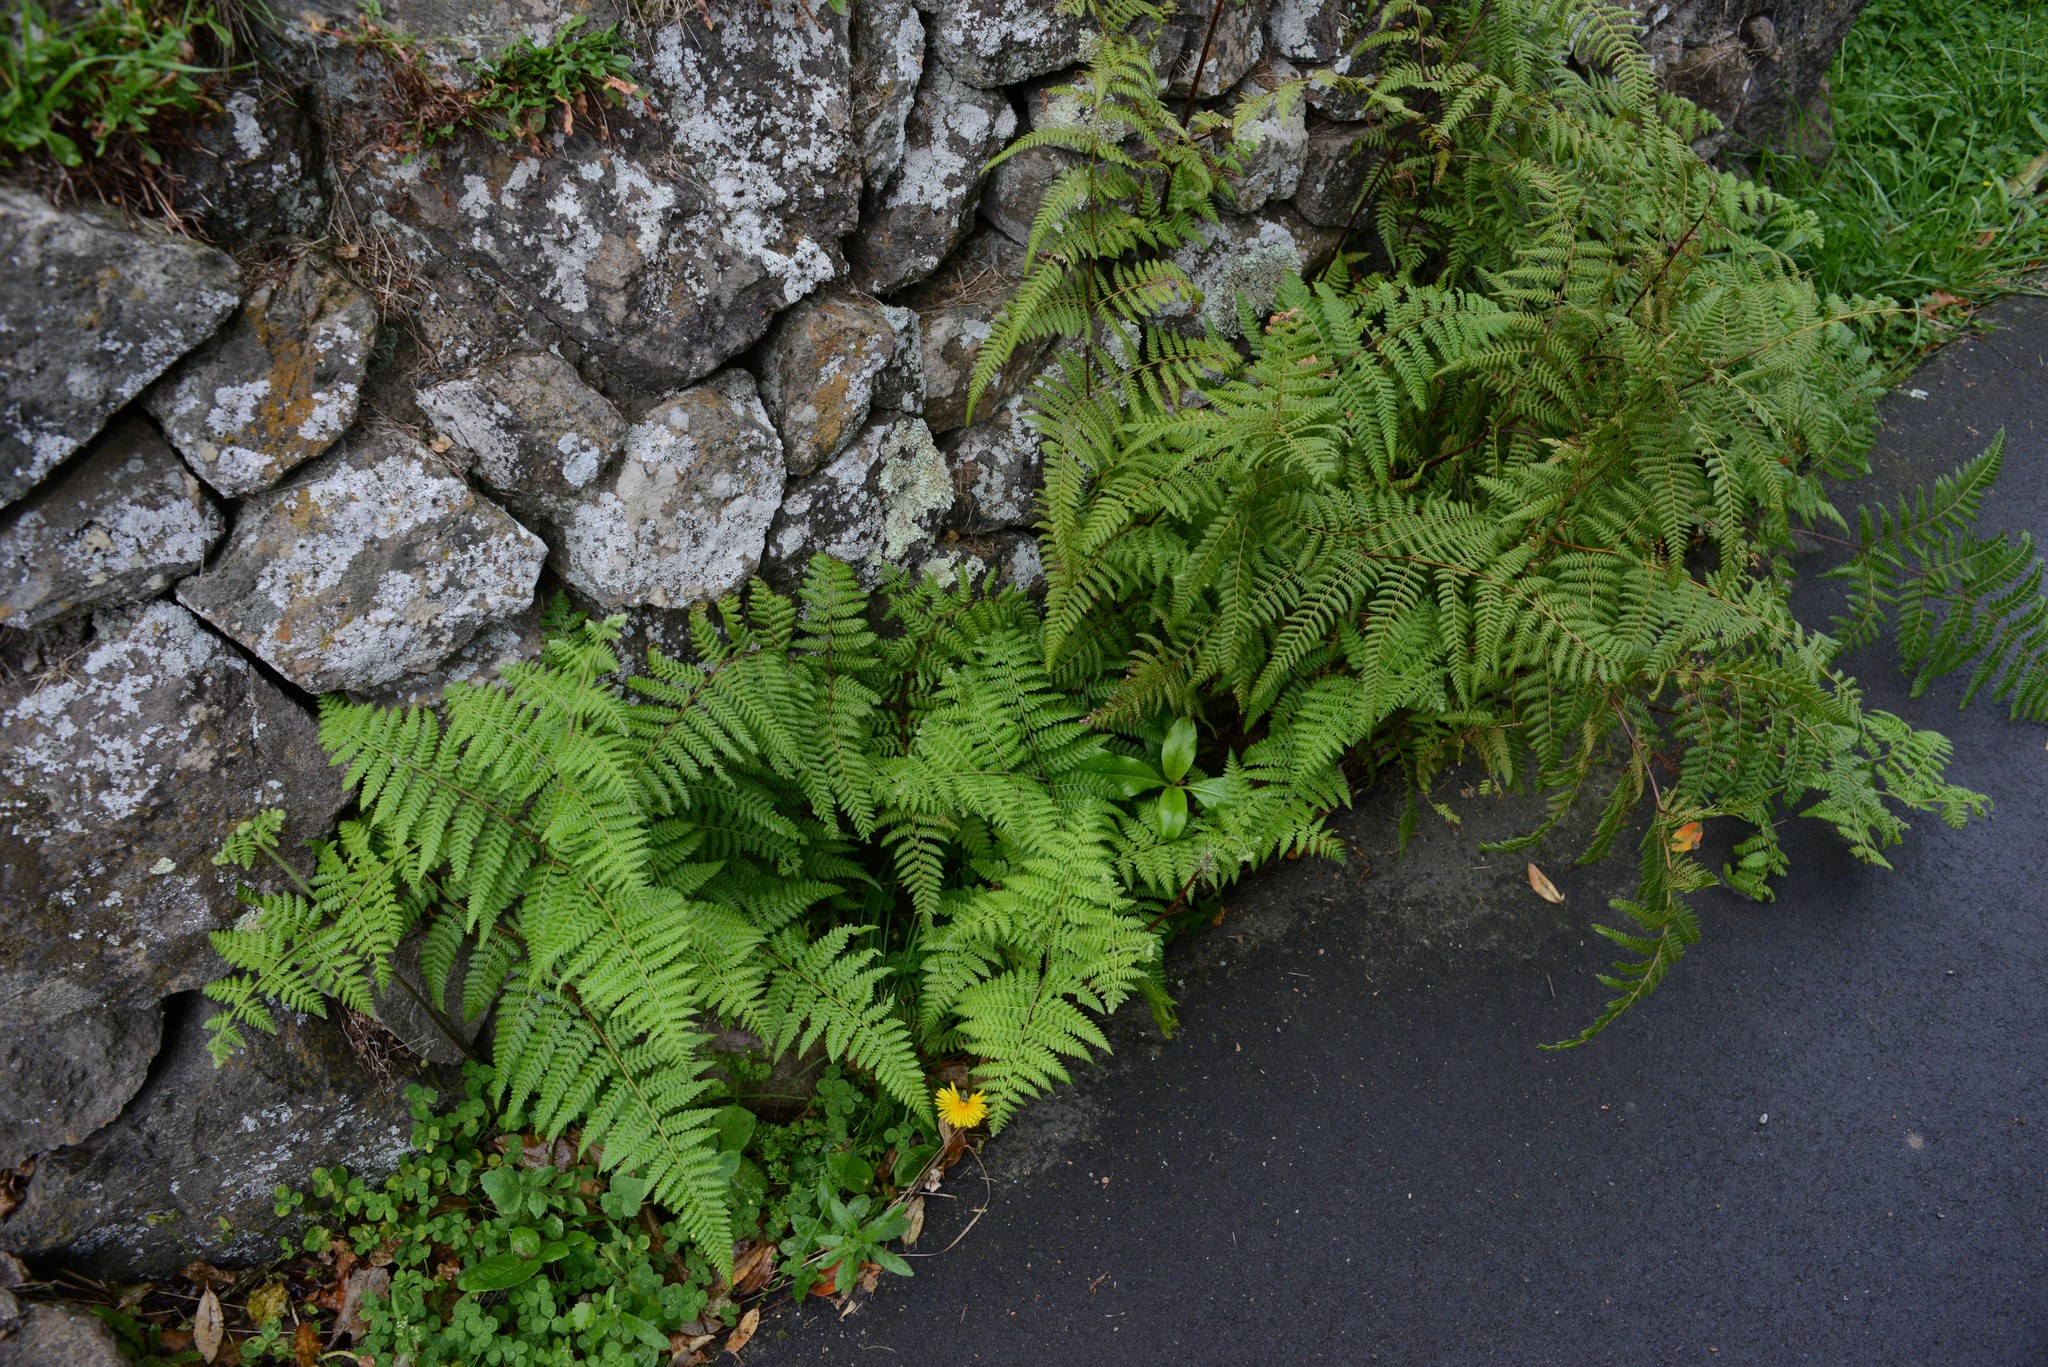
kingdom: Plantae
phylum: Tracheophyta
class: Polypodiopsida
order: Polypodiales
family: Dennstaedtiaceae
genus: Hypolepis
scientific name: Hypolepis ambigua
